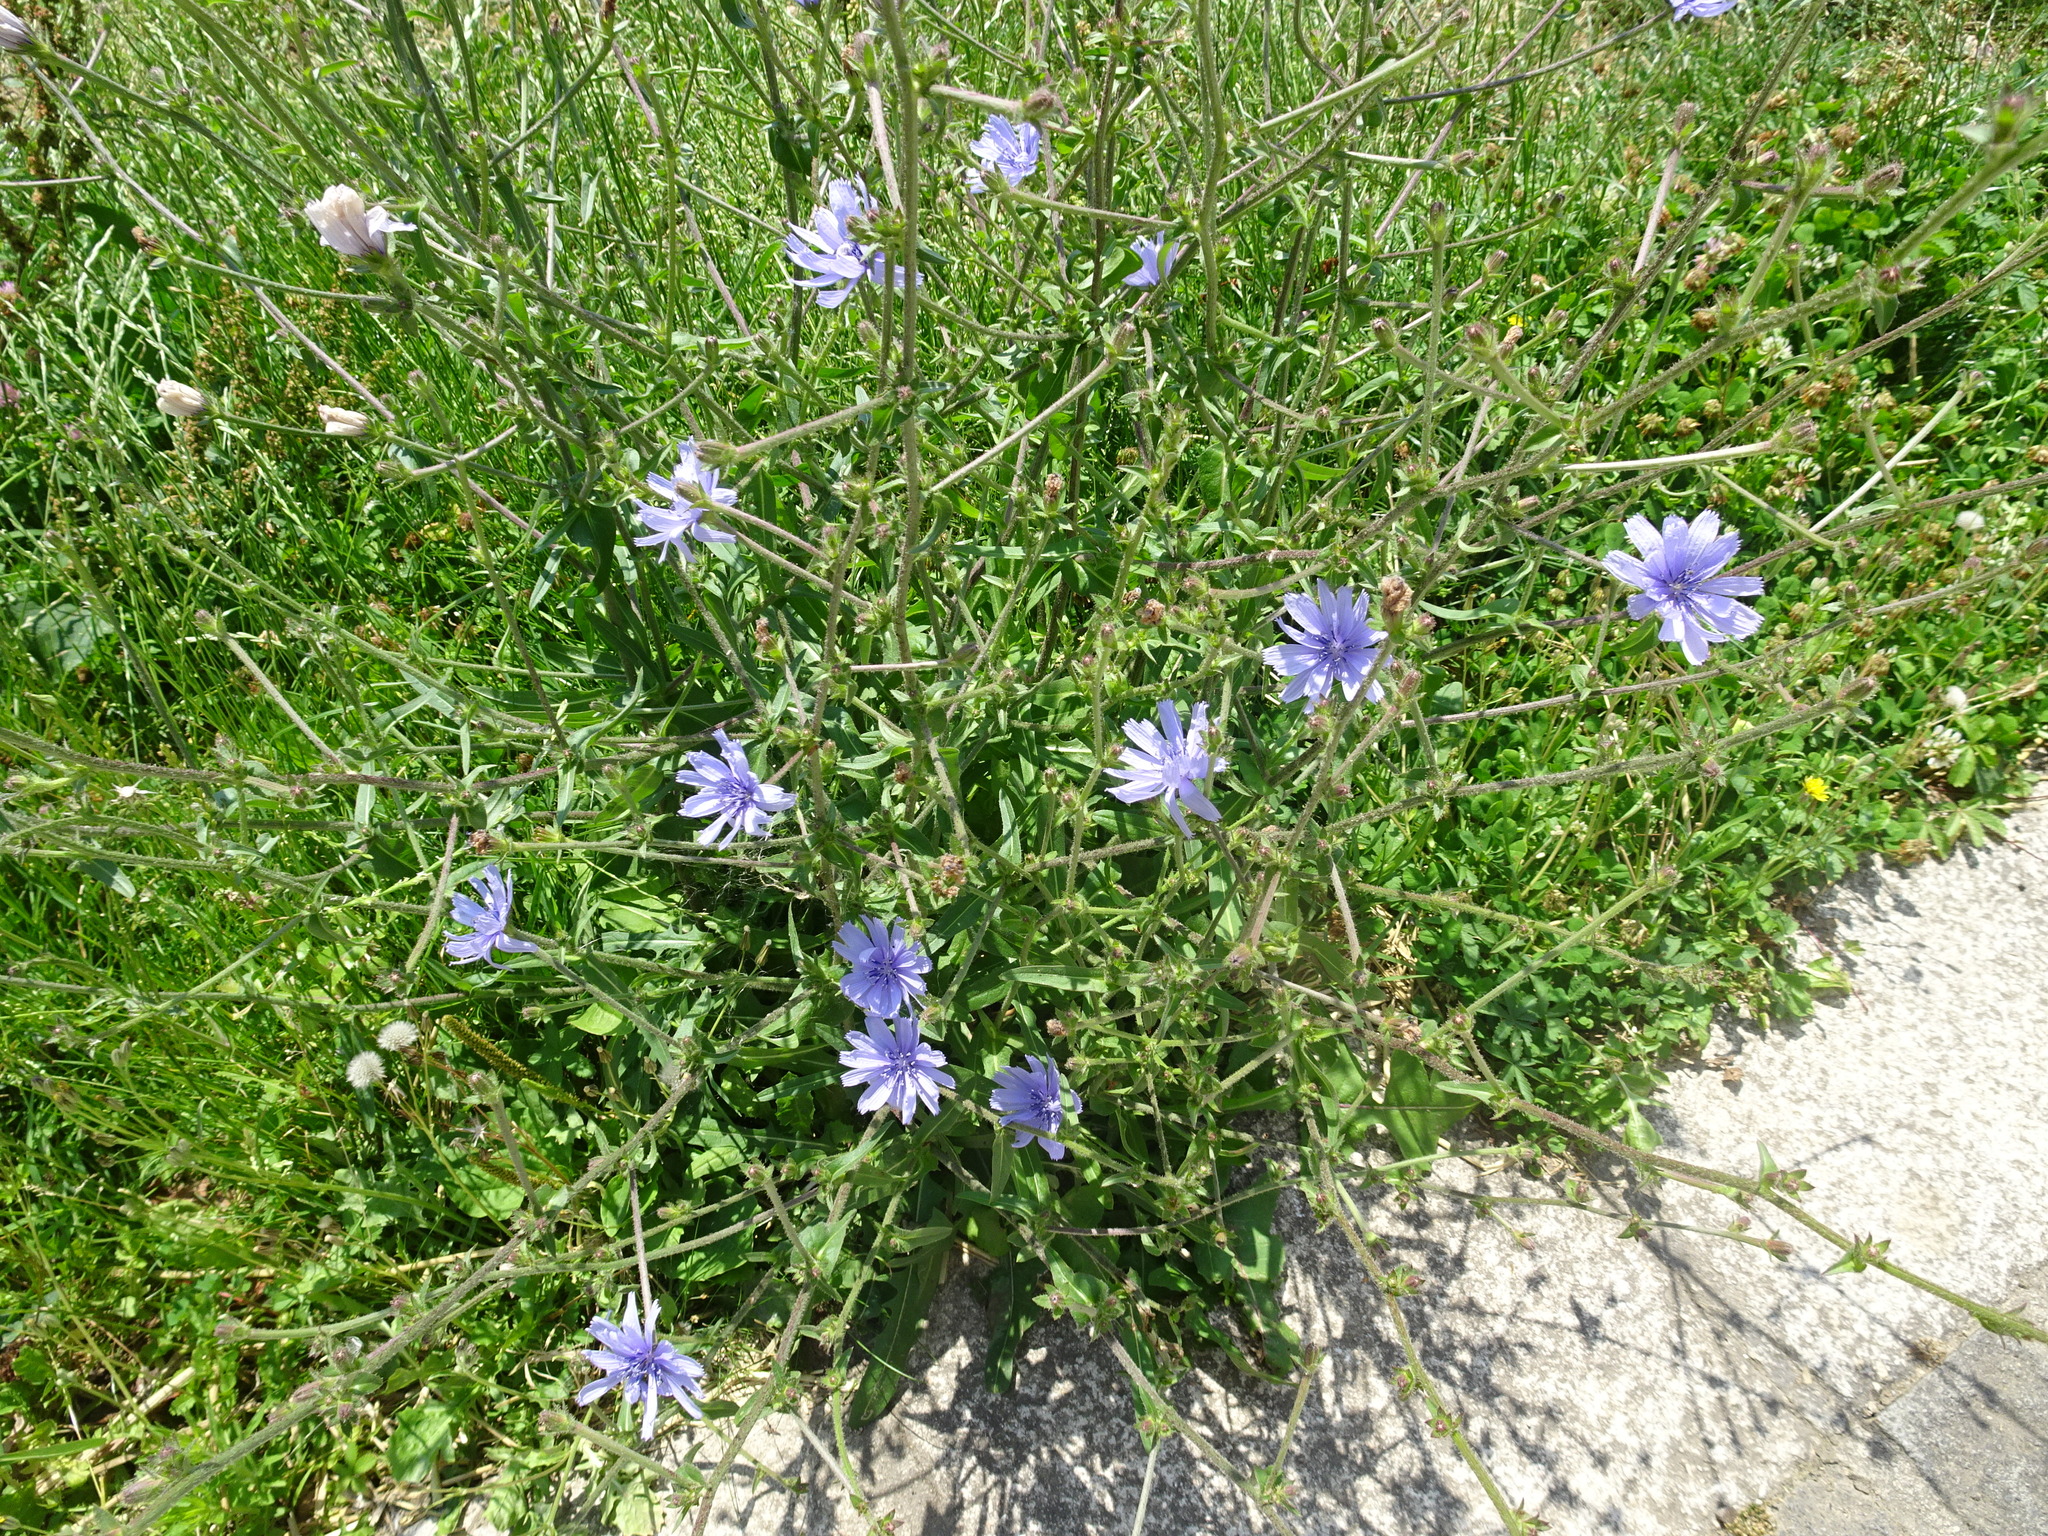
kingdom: Plantae
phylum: Tracheophyta
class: Magnoliopsida
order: Asterales
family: Asteraceae
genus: Cichorium
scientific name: Cichorium intybus
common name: Chicory
